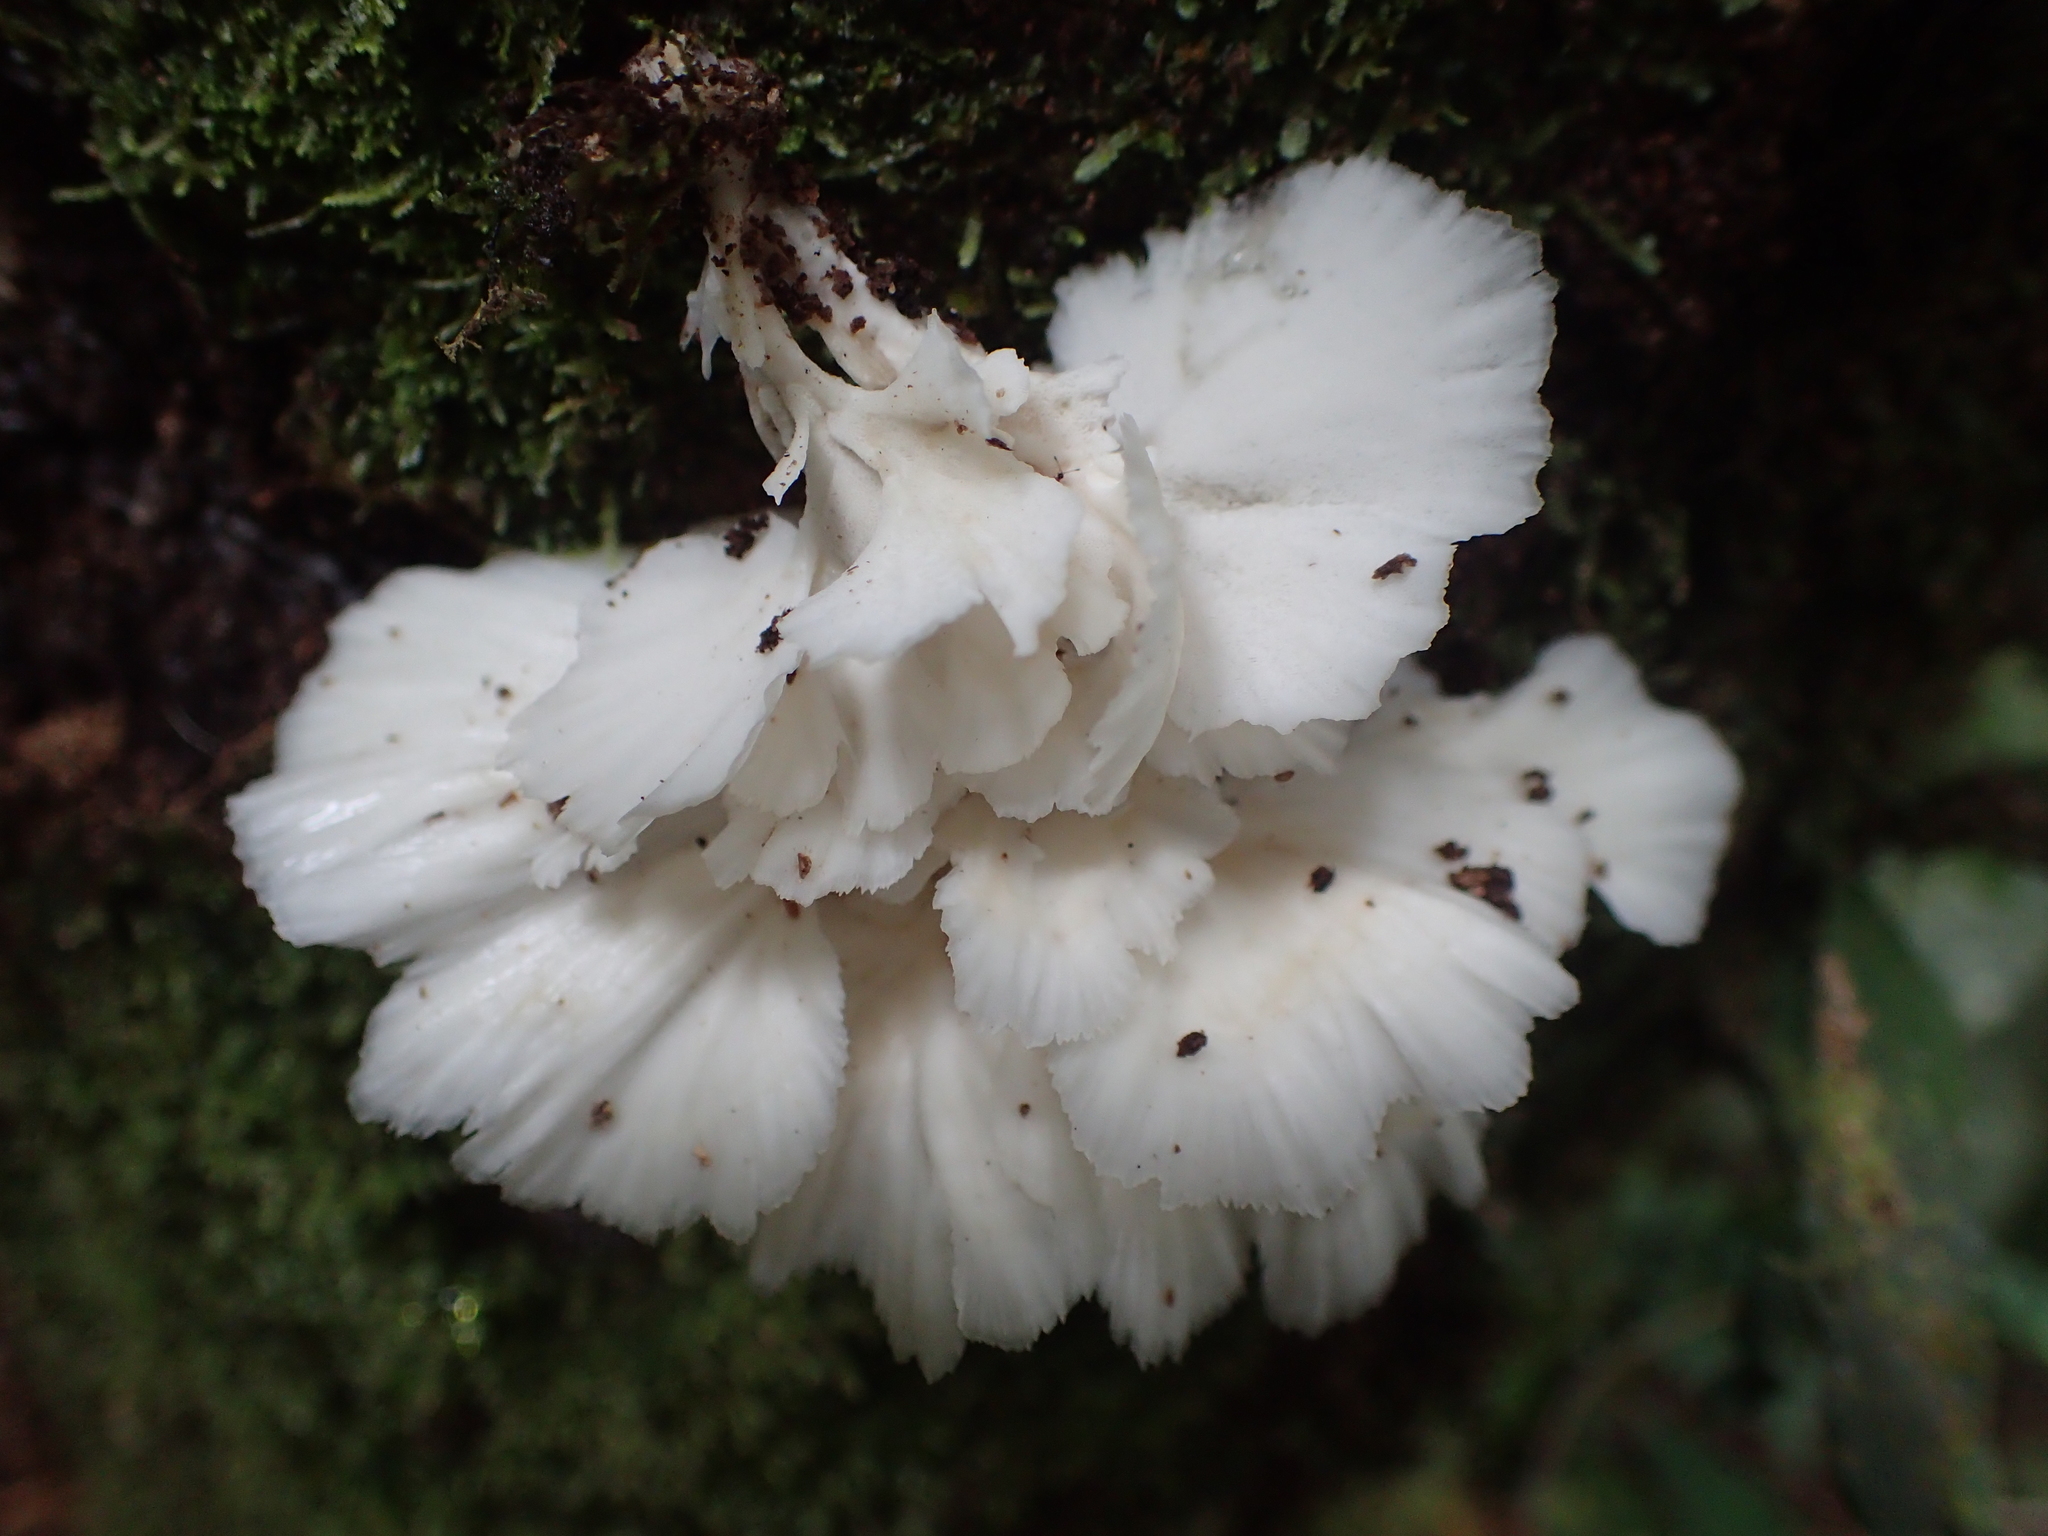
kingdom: Fungi
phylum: Basidiomycota
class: Agaricomycetes
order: Hymenochaetales
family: Rickenellaceae
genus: Cotylidia
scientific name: Cotylidia diaphana
